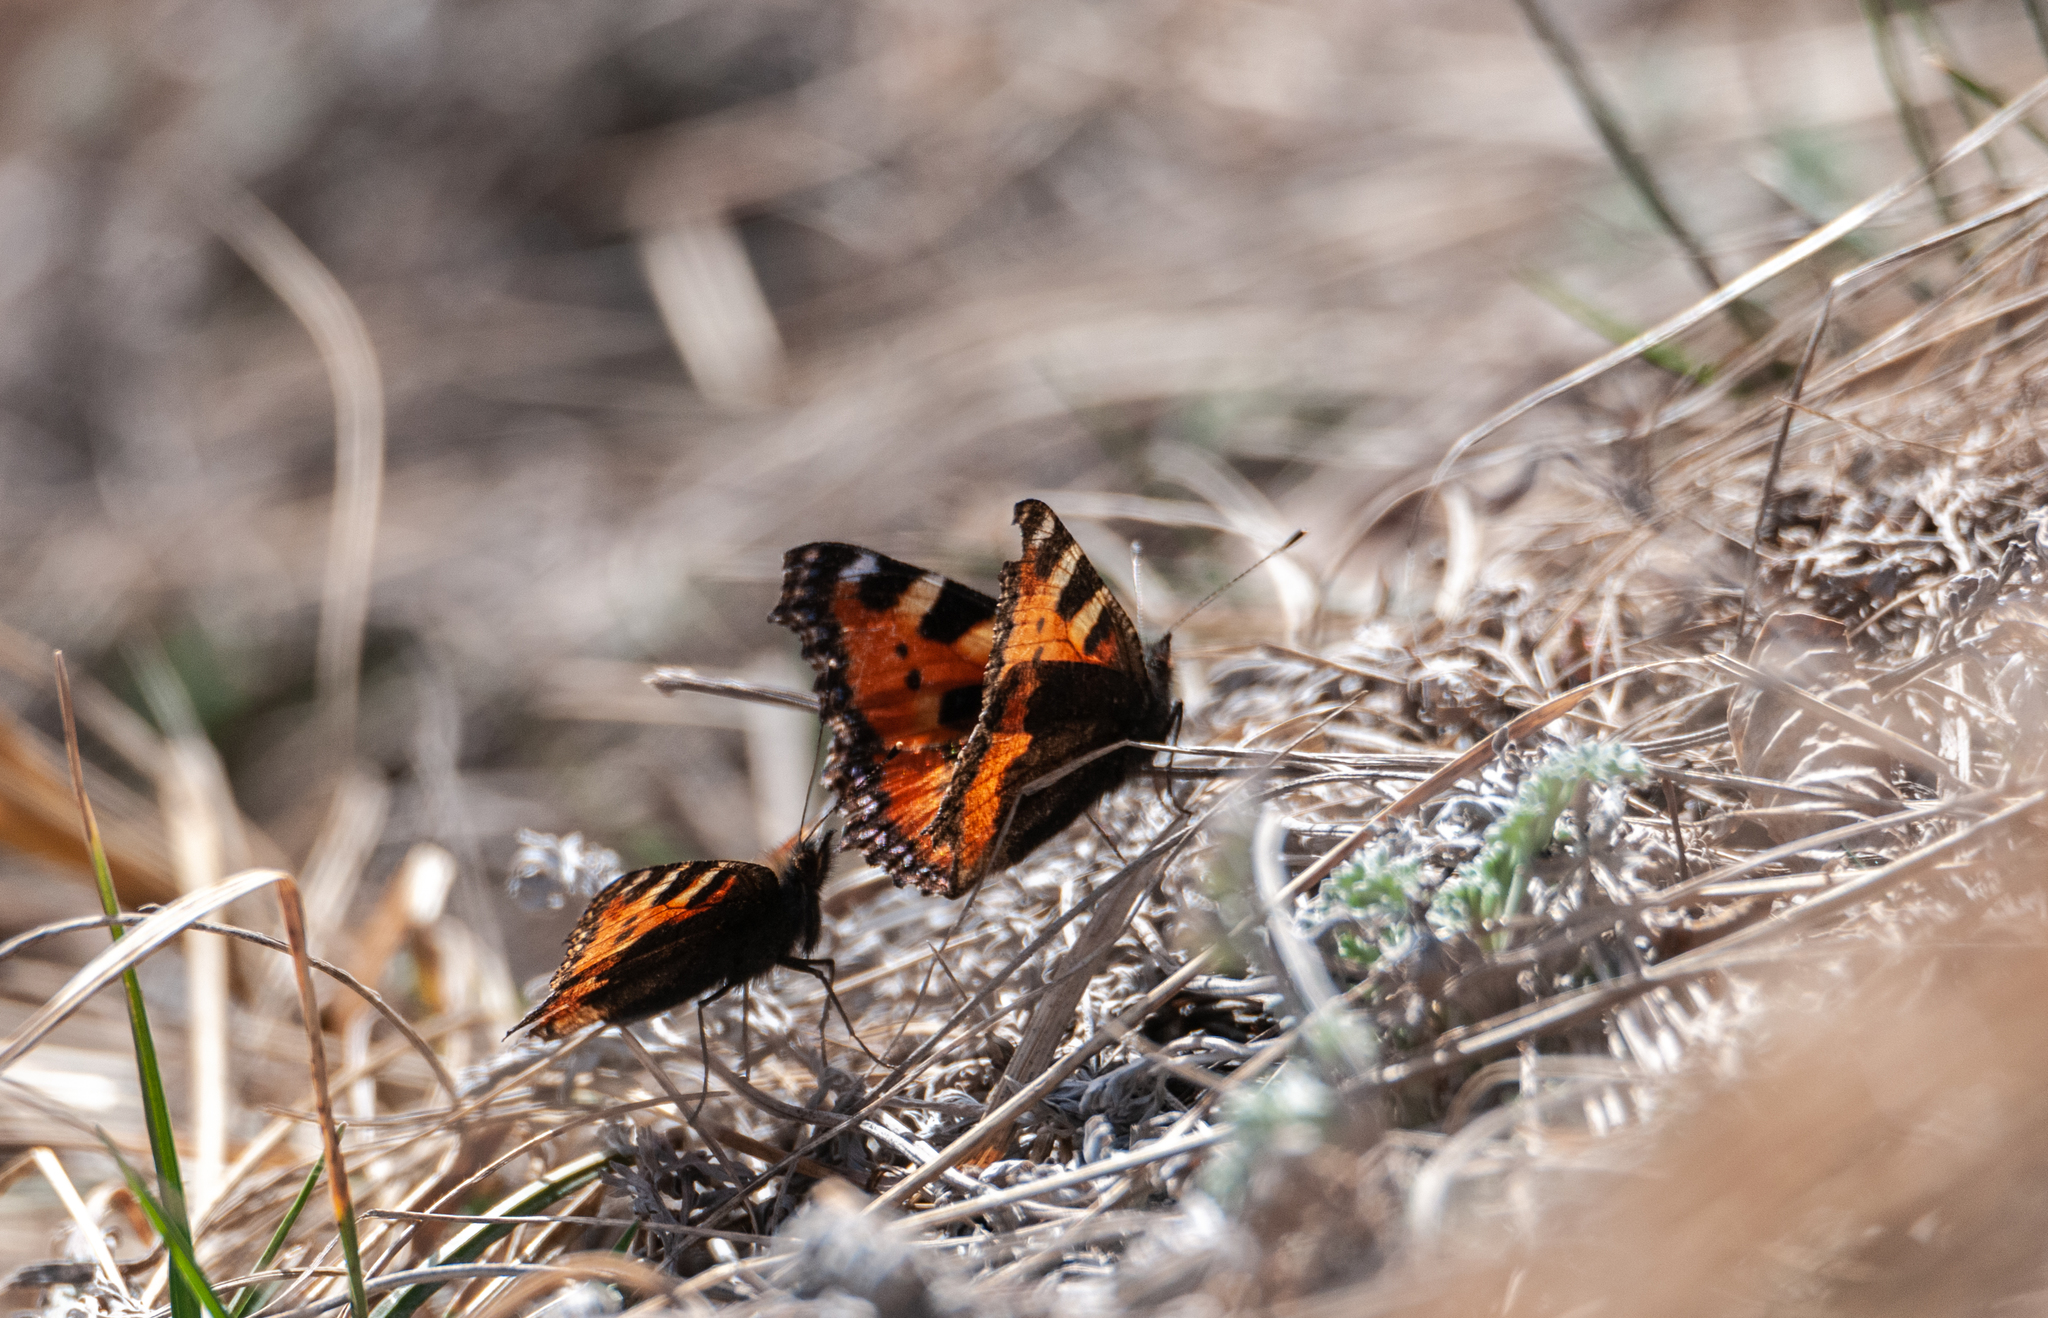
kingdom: Animalia
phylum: Arthropoda
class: Insecta
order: Lepidoptera
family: Nymphalidae
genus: Aglais
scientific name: Aglais urticae
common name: Small tortoiseshell
